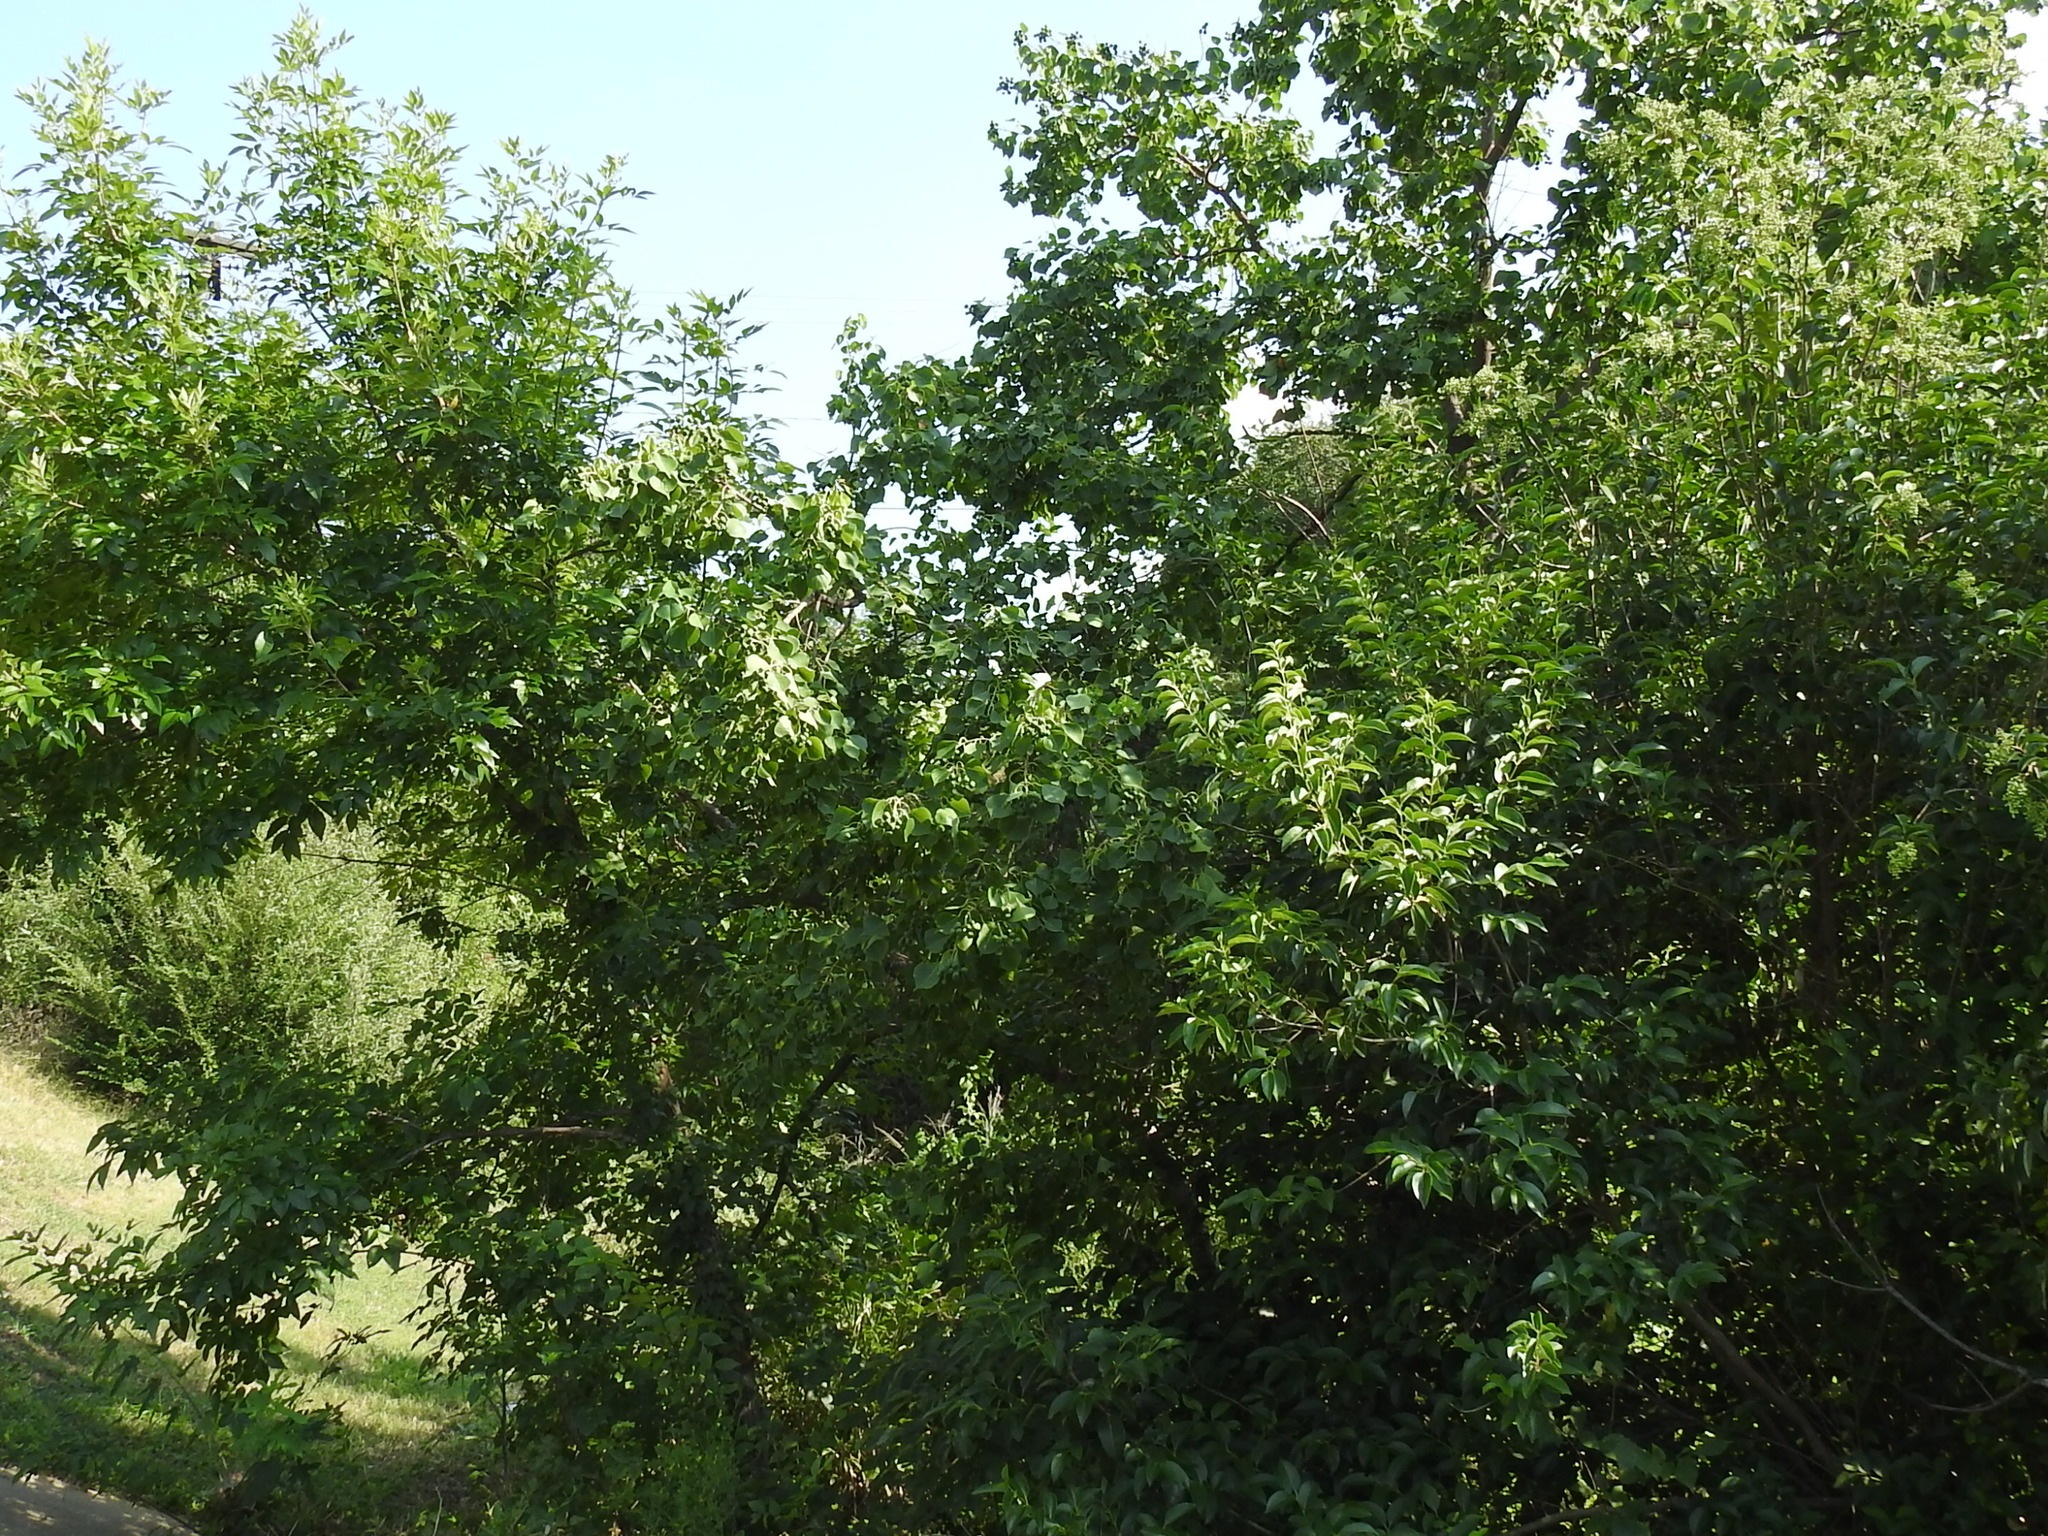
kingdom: Plantae
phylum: Tracheophyta
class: Magnoliopsida
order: Malpighiales
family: Euphorbiaceae
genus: Triadica
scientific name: Triadica sebifera
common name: Chinese tallow
